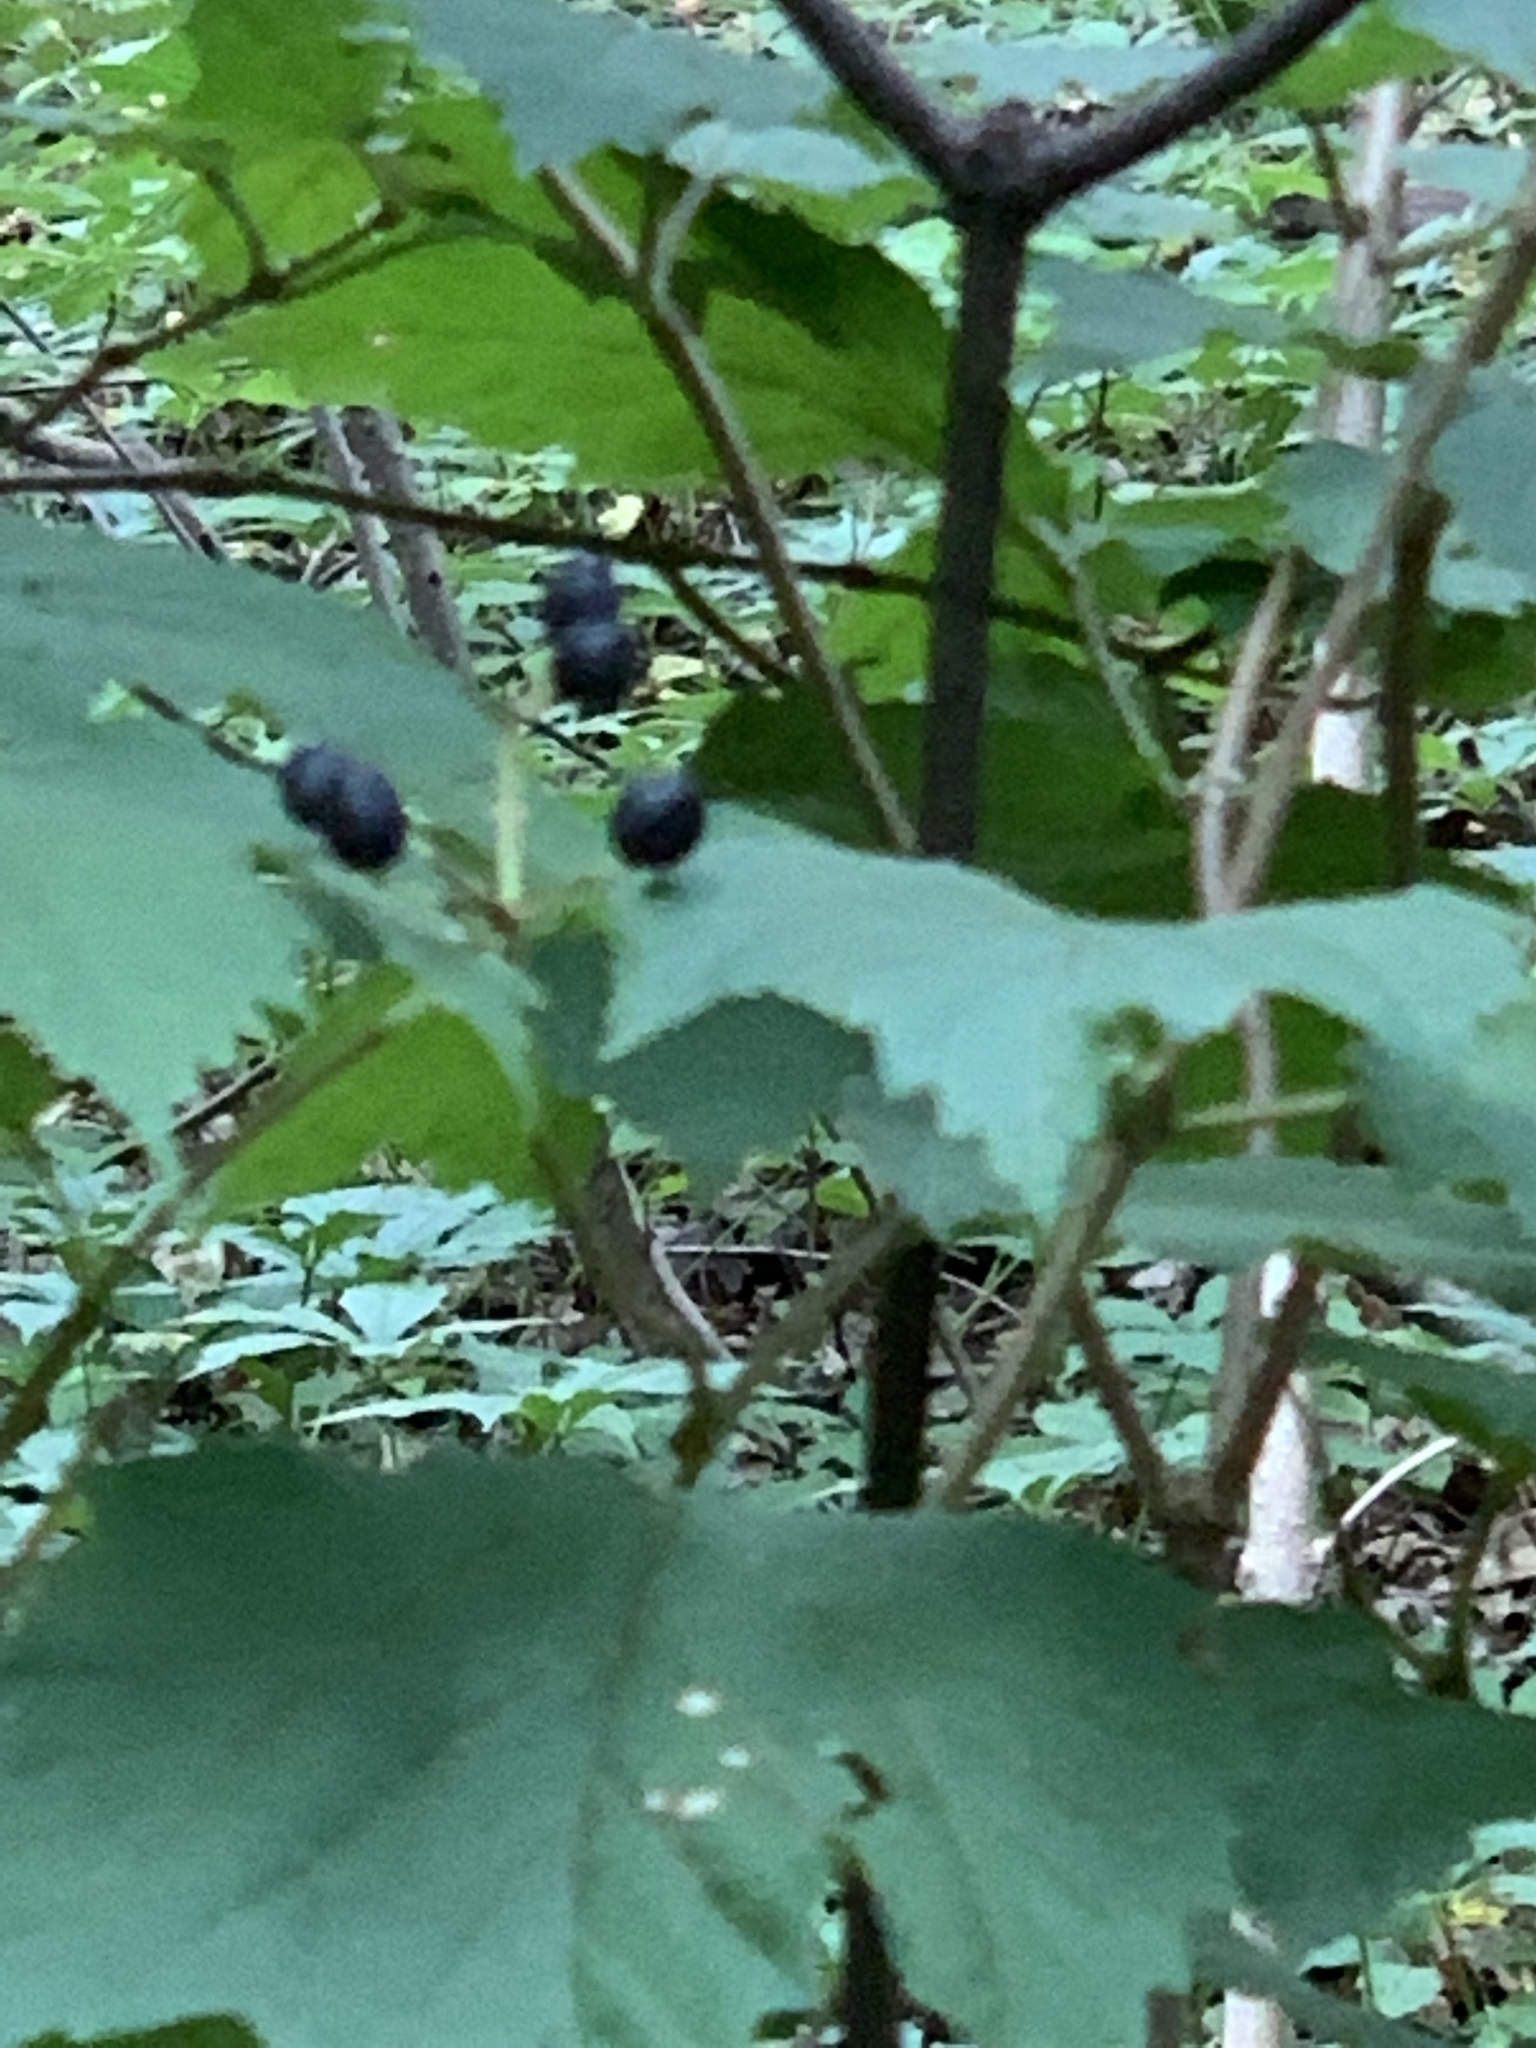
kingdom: Plantae
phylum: Tracheophyta
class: Magnoliopsida
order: Dipsacales
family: Viburnaceae
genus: Viburnum
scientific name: Viburnum acerifolium
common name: Dockmackie
